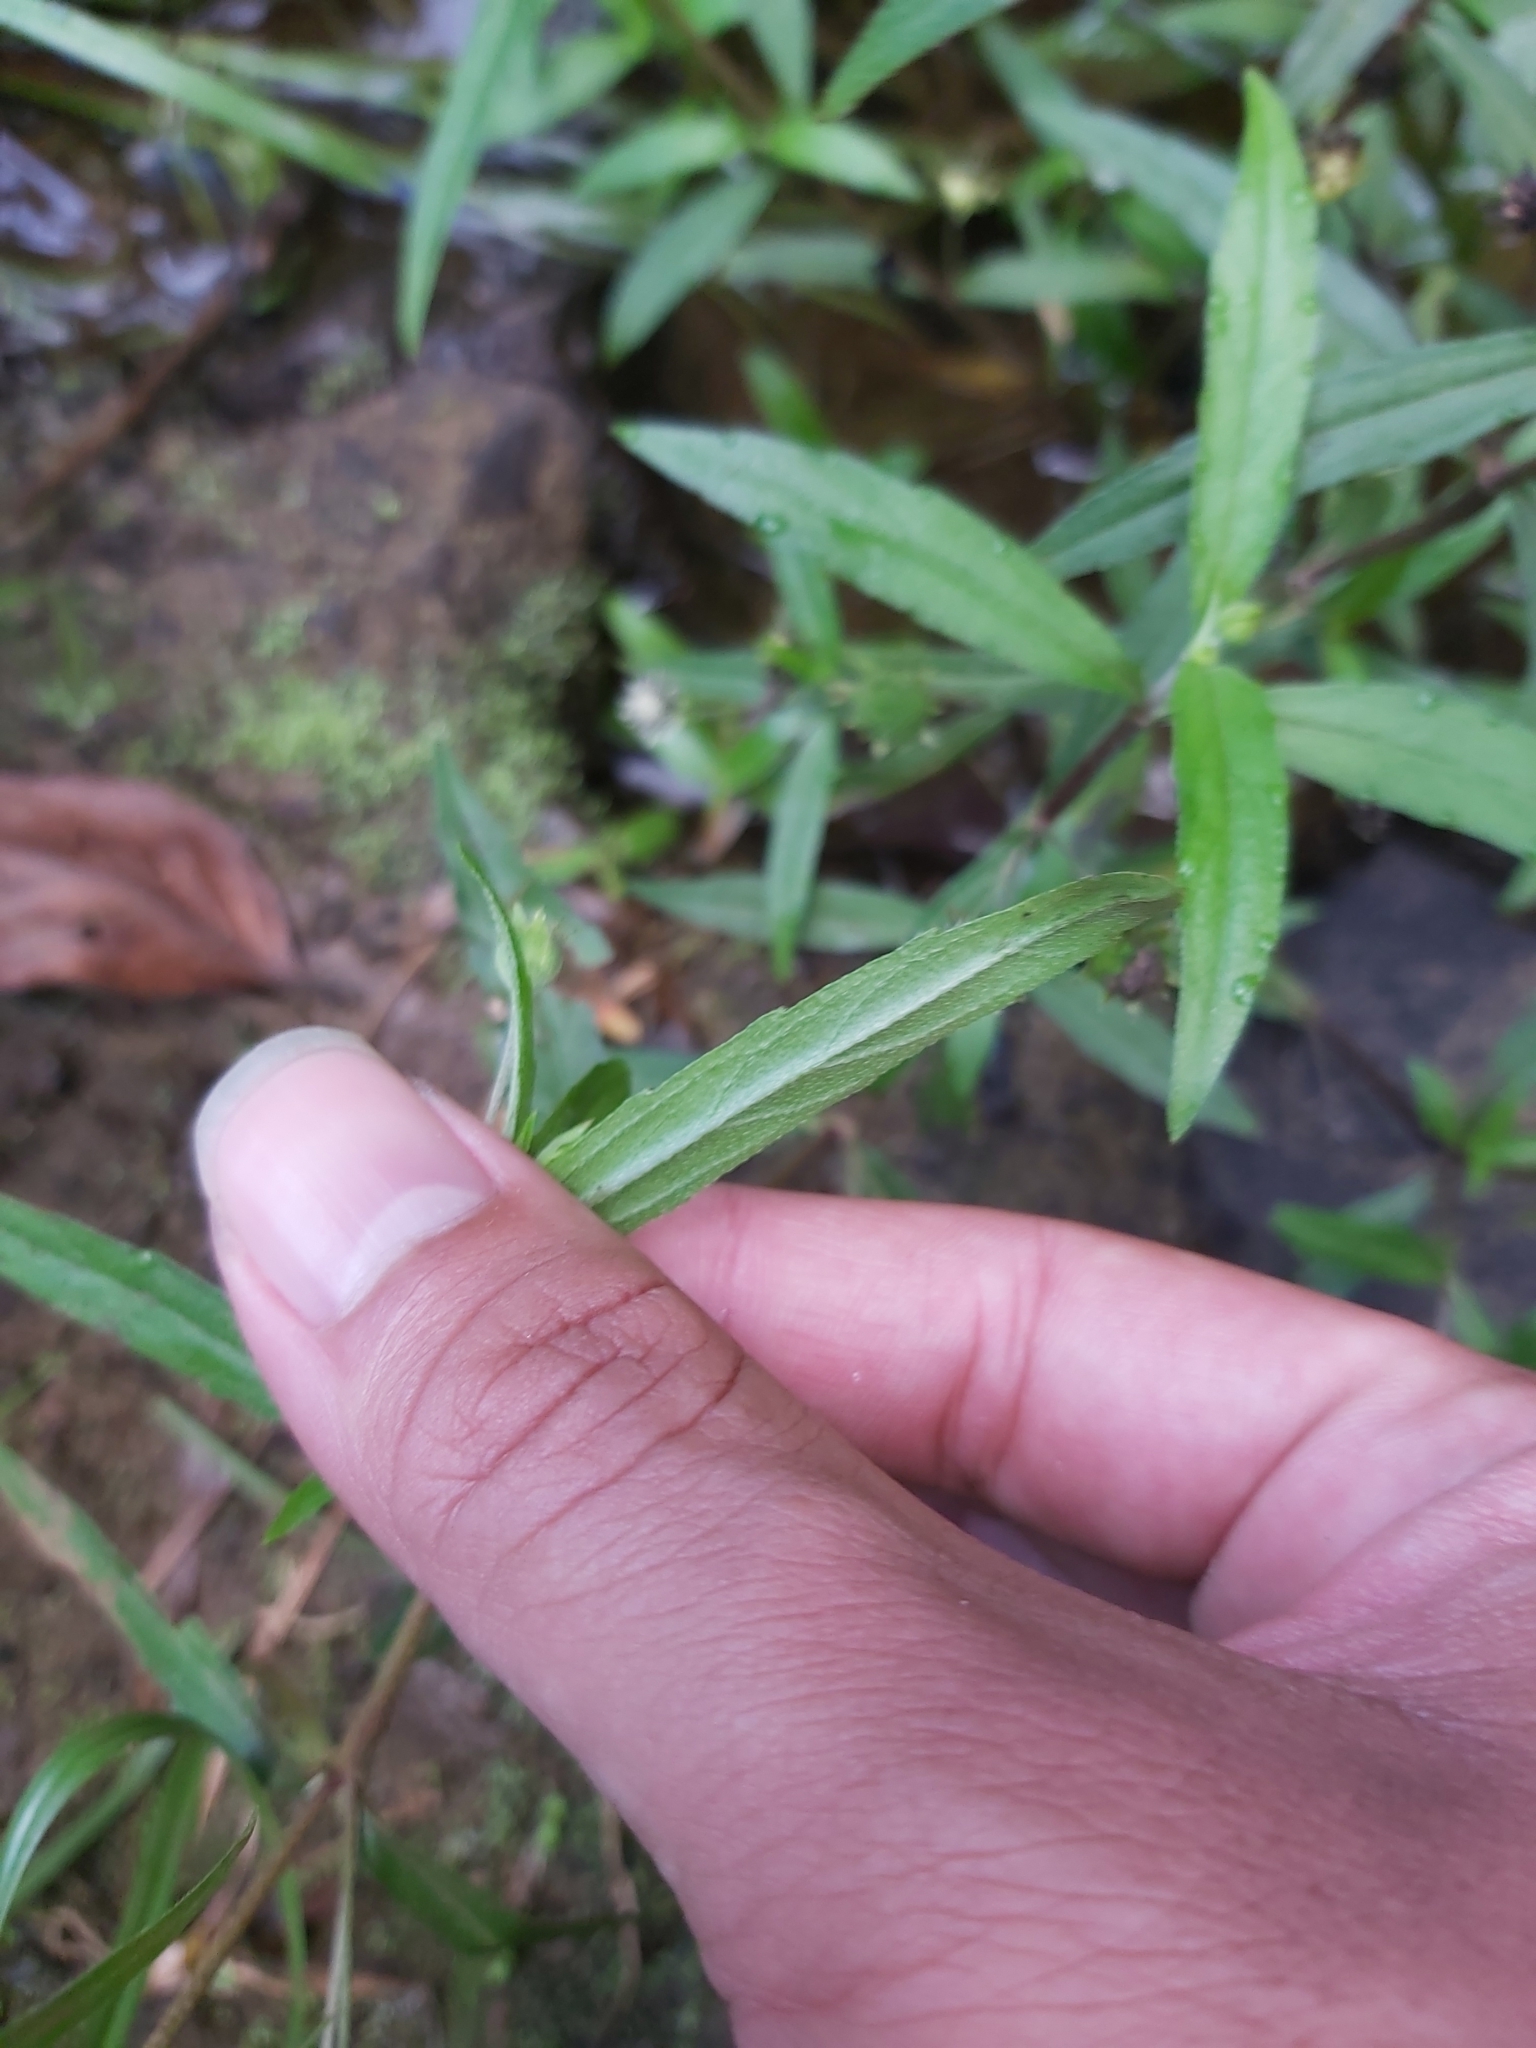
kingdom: Plantae
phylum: Tracheophyta
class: Magnoliopsida
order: Asterales
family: Asteraceae
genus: Eclipta
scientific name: Eclipta prostrata
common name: False daisy
